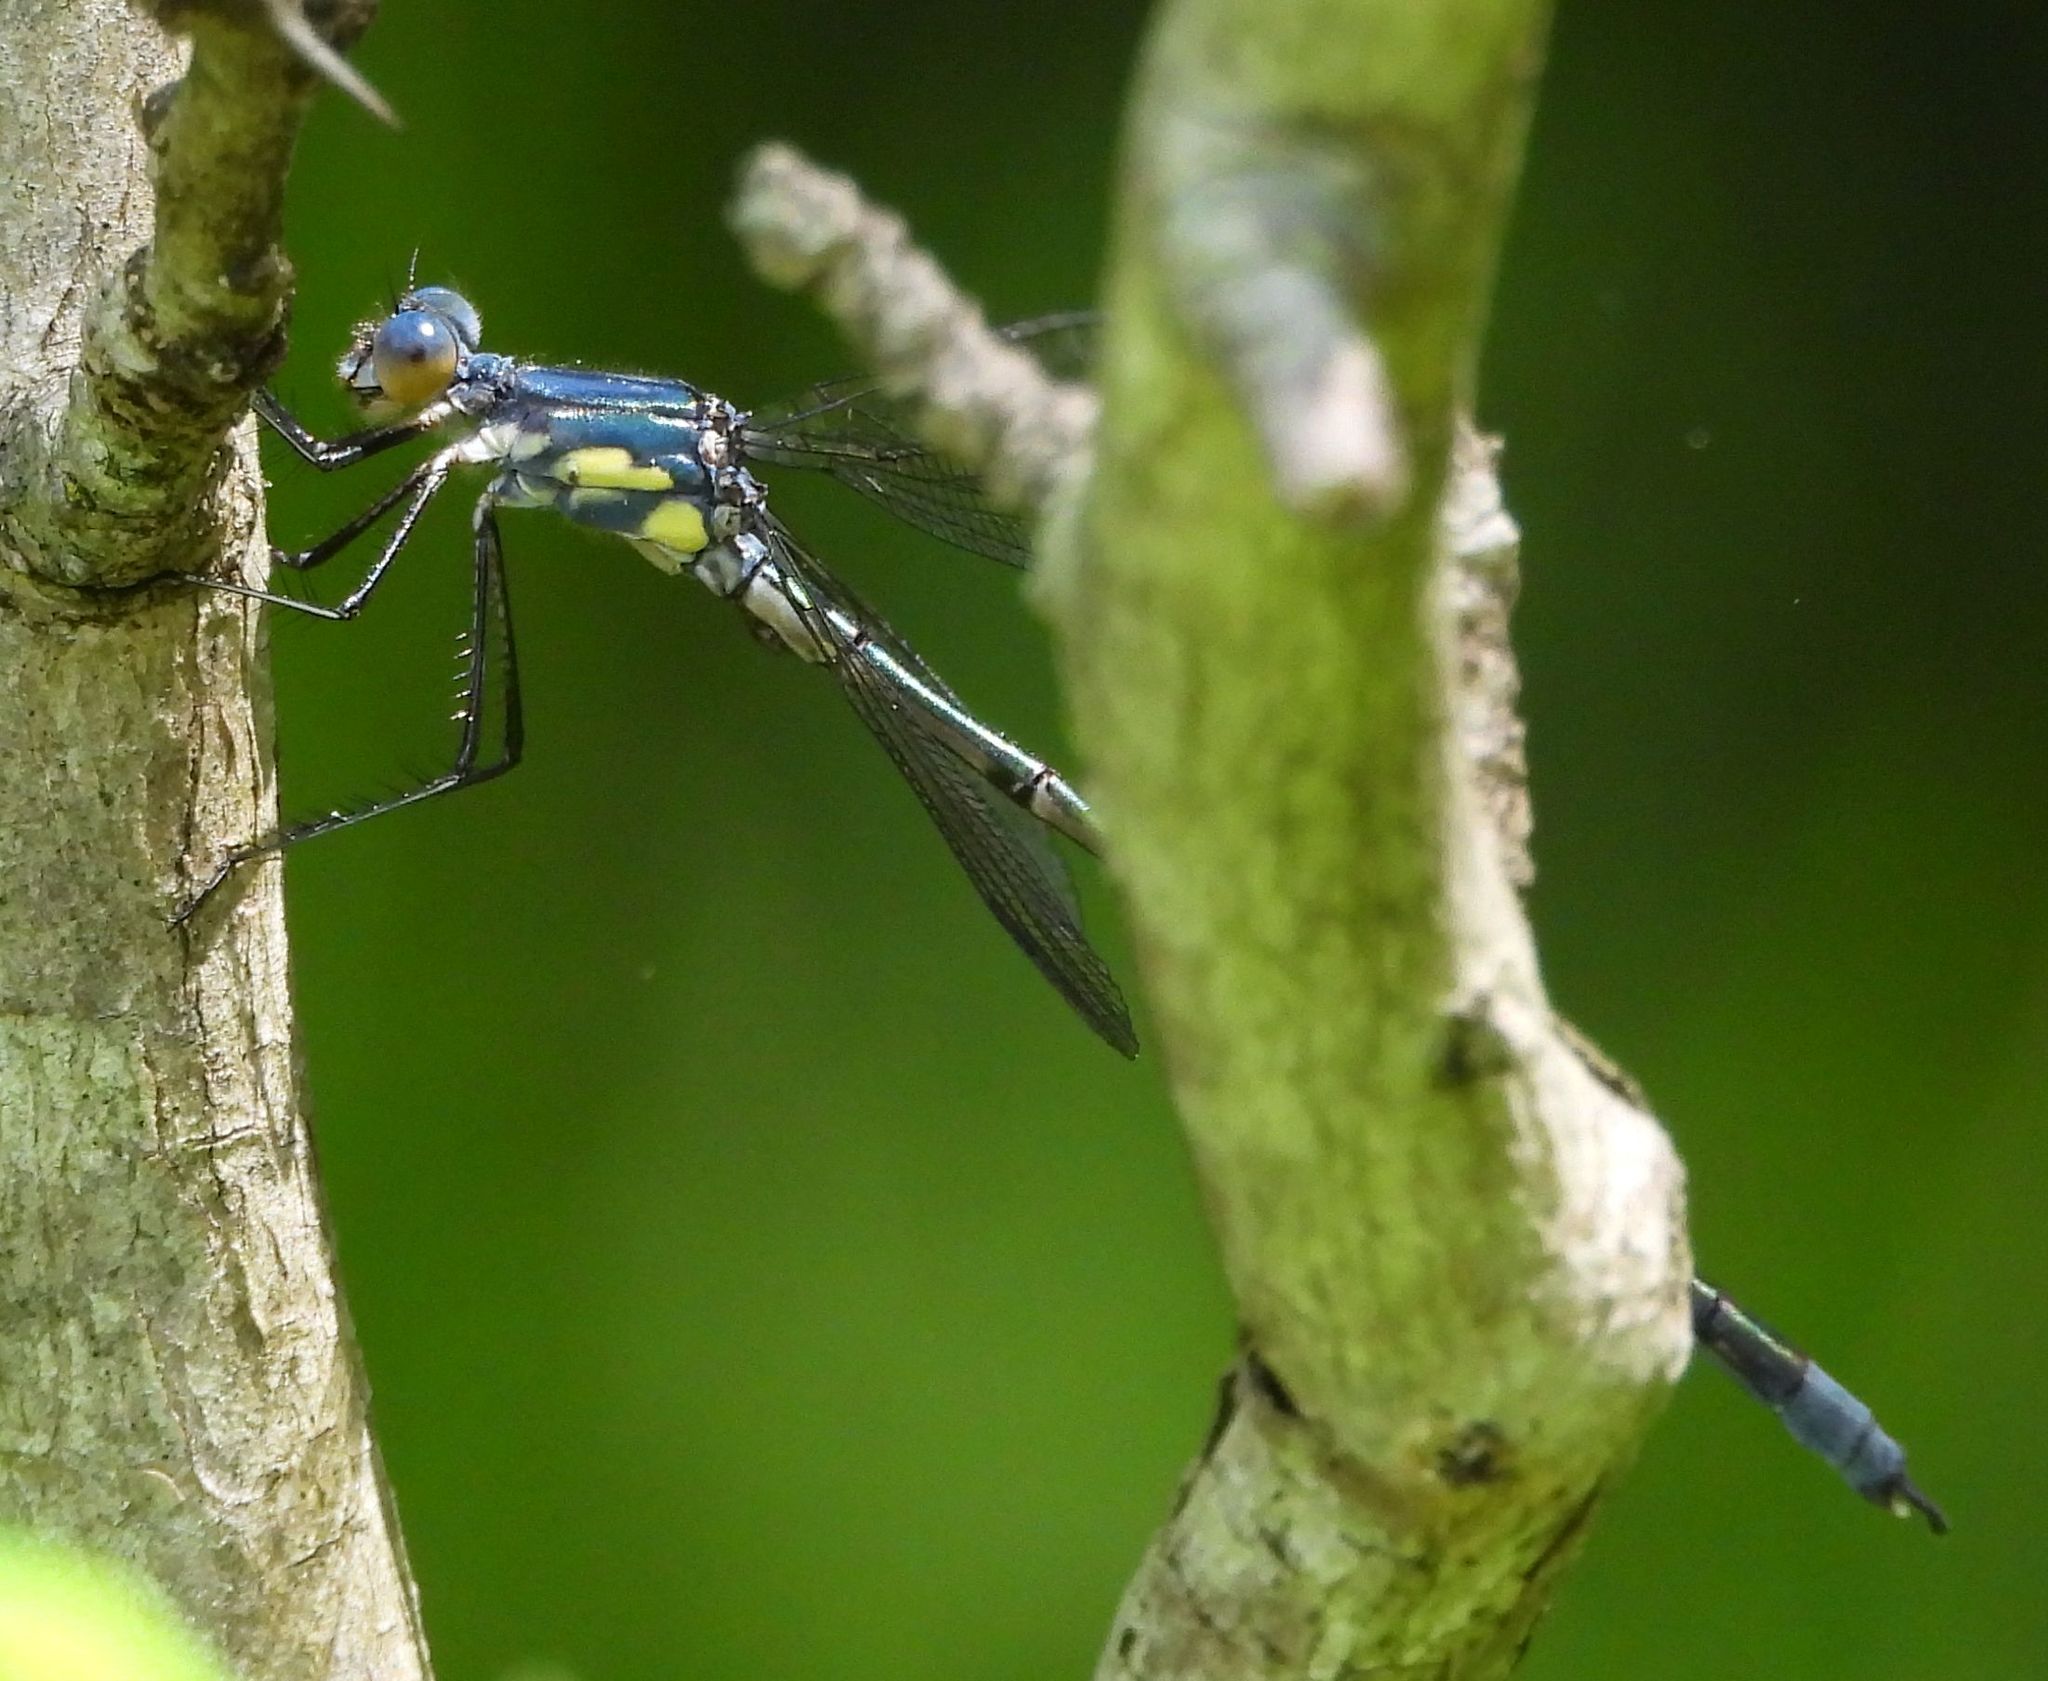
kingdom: Animalia
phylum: Arthropoda
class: Insecta
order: Odonata
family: Lestidae
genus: Lestes
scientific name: Lestes eurinus
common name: Amber-winged spreadwing
